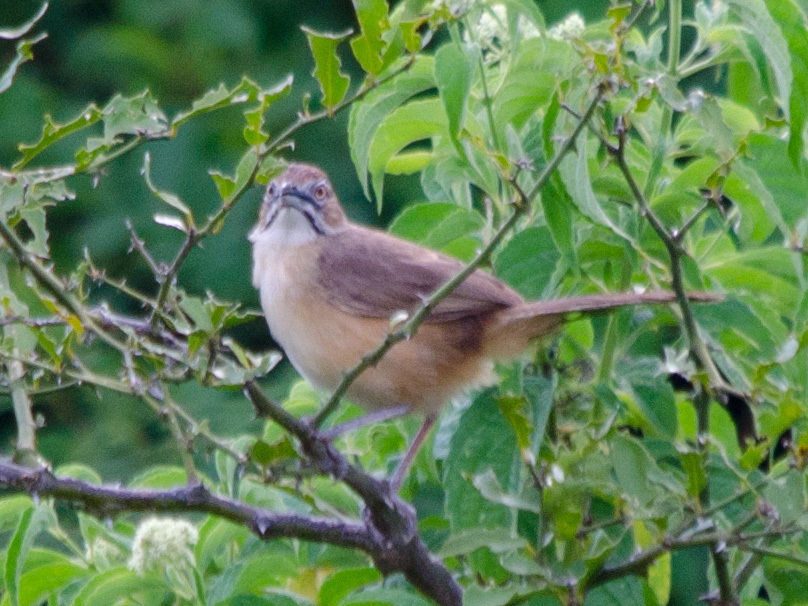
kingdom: Animalia
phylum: Chordata
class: Aves
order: Passeriformes
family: Macrosphenidae
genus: Melocichla
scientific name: Melocichla mentalis
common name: Moustached grass warbler
